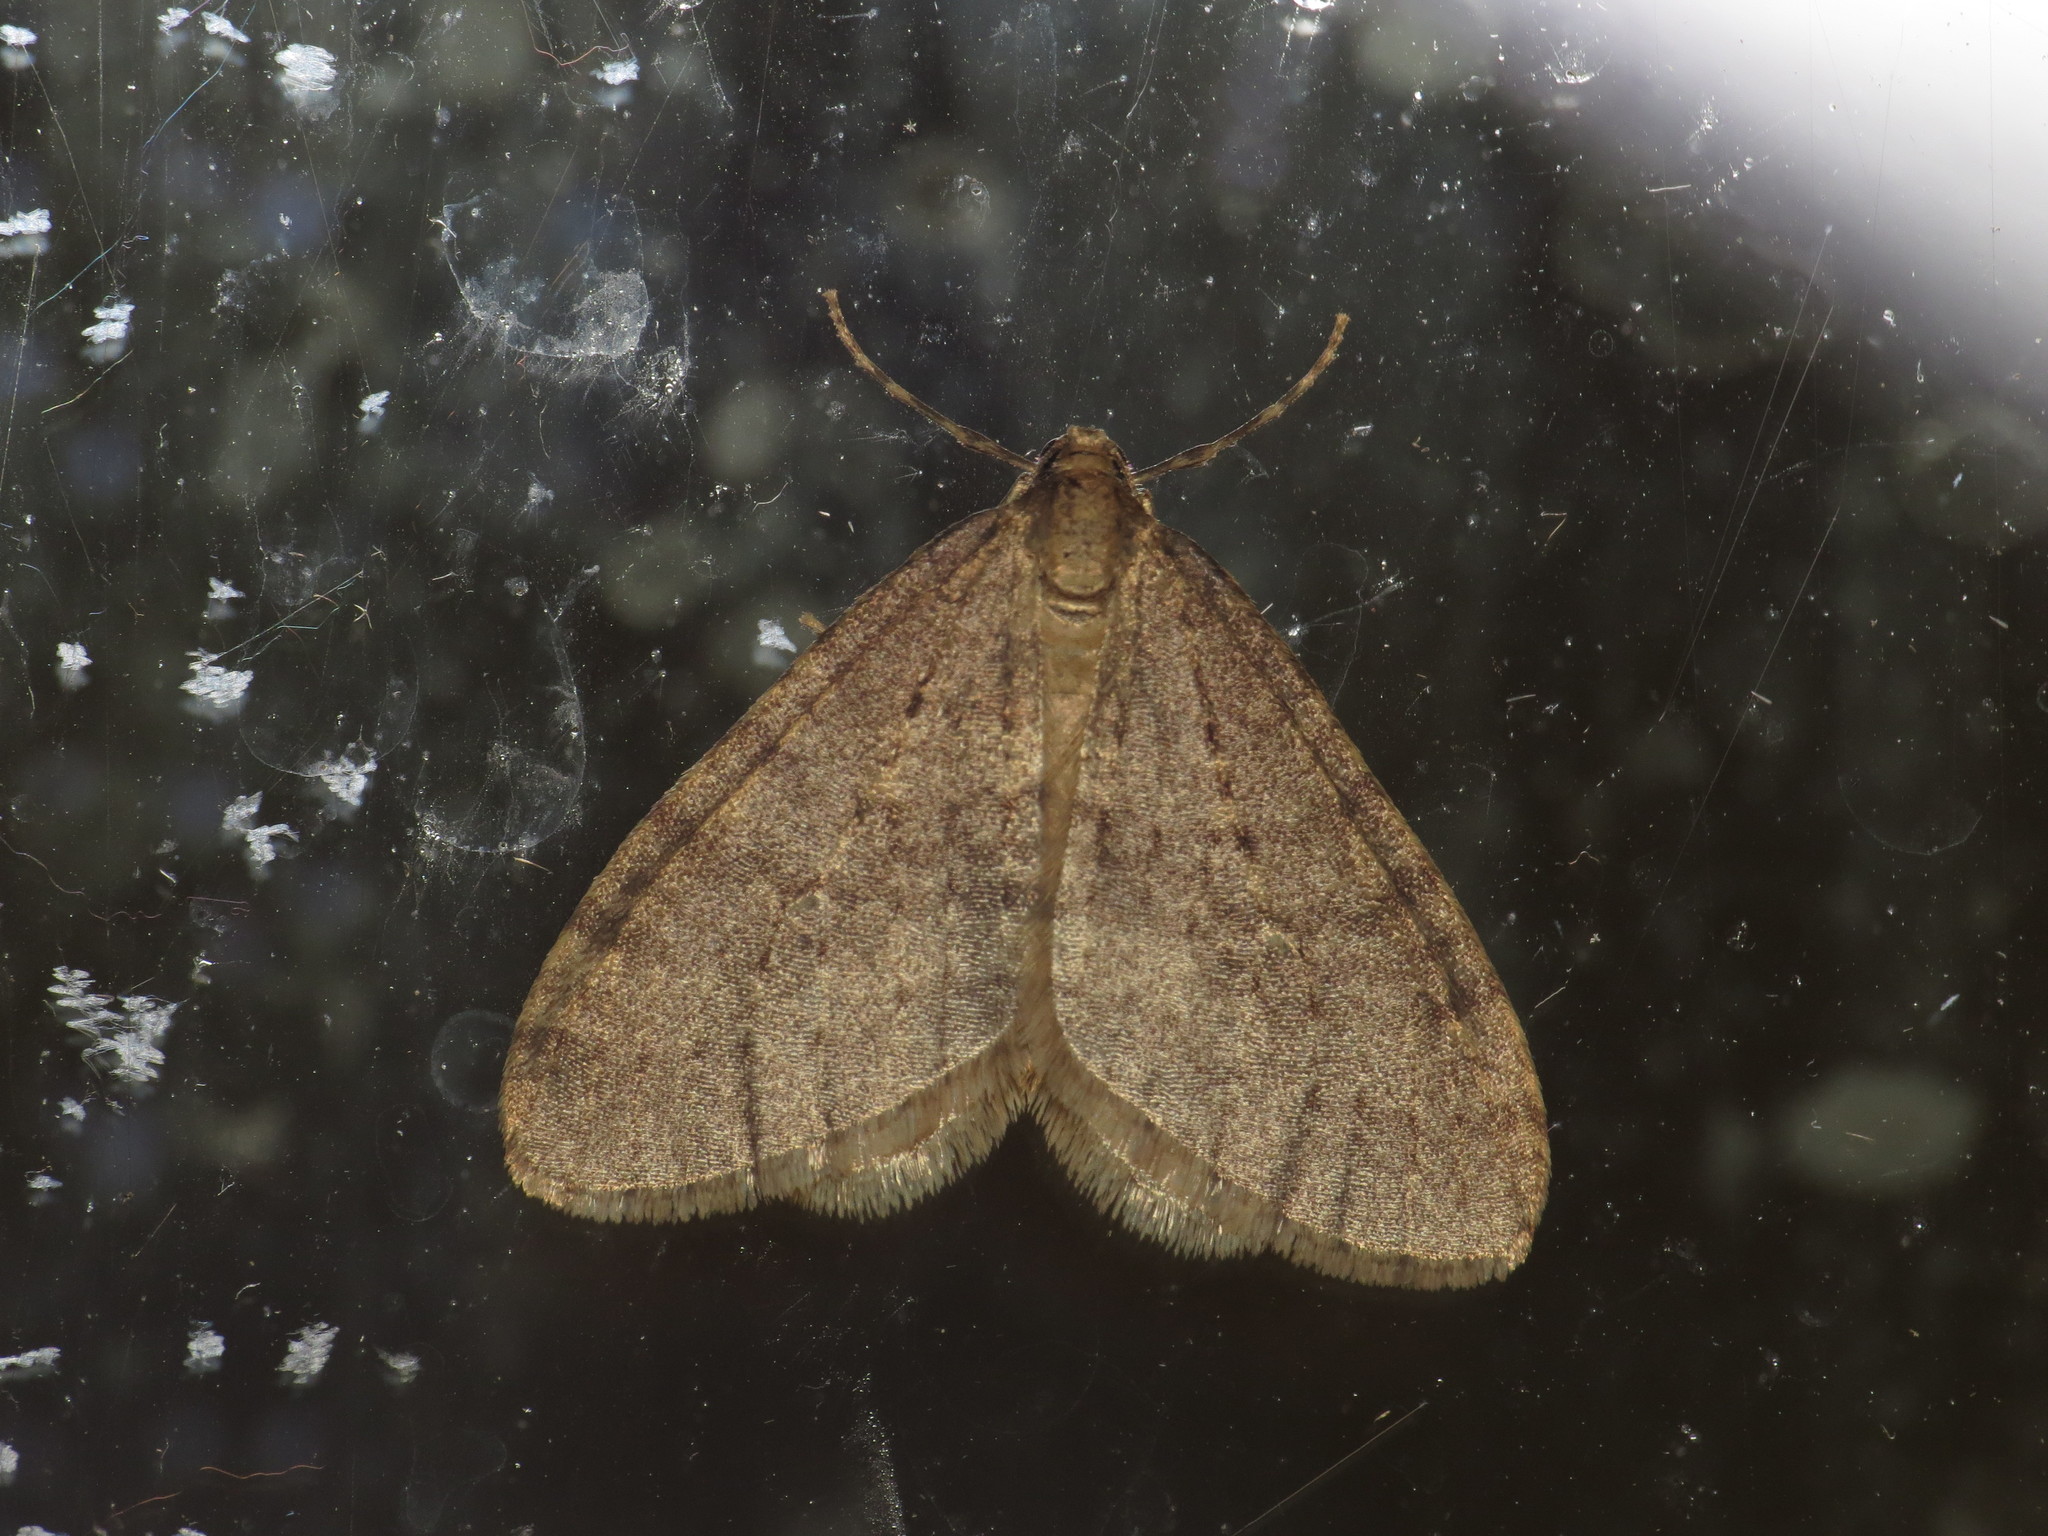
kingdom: Animalia
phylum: Arthropoda
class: Insecta
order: Lepidoptera
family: Geometridae
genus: Operophtera
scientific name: Operophtera brumata
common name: Winter moth
